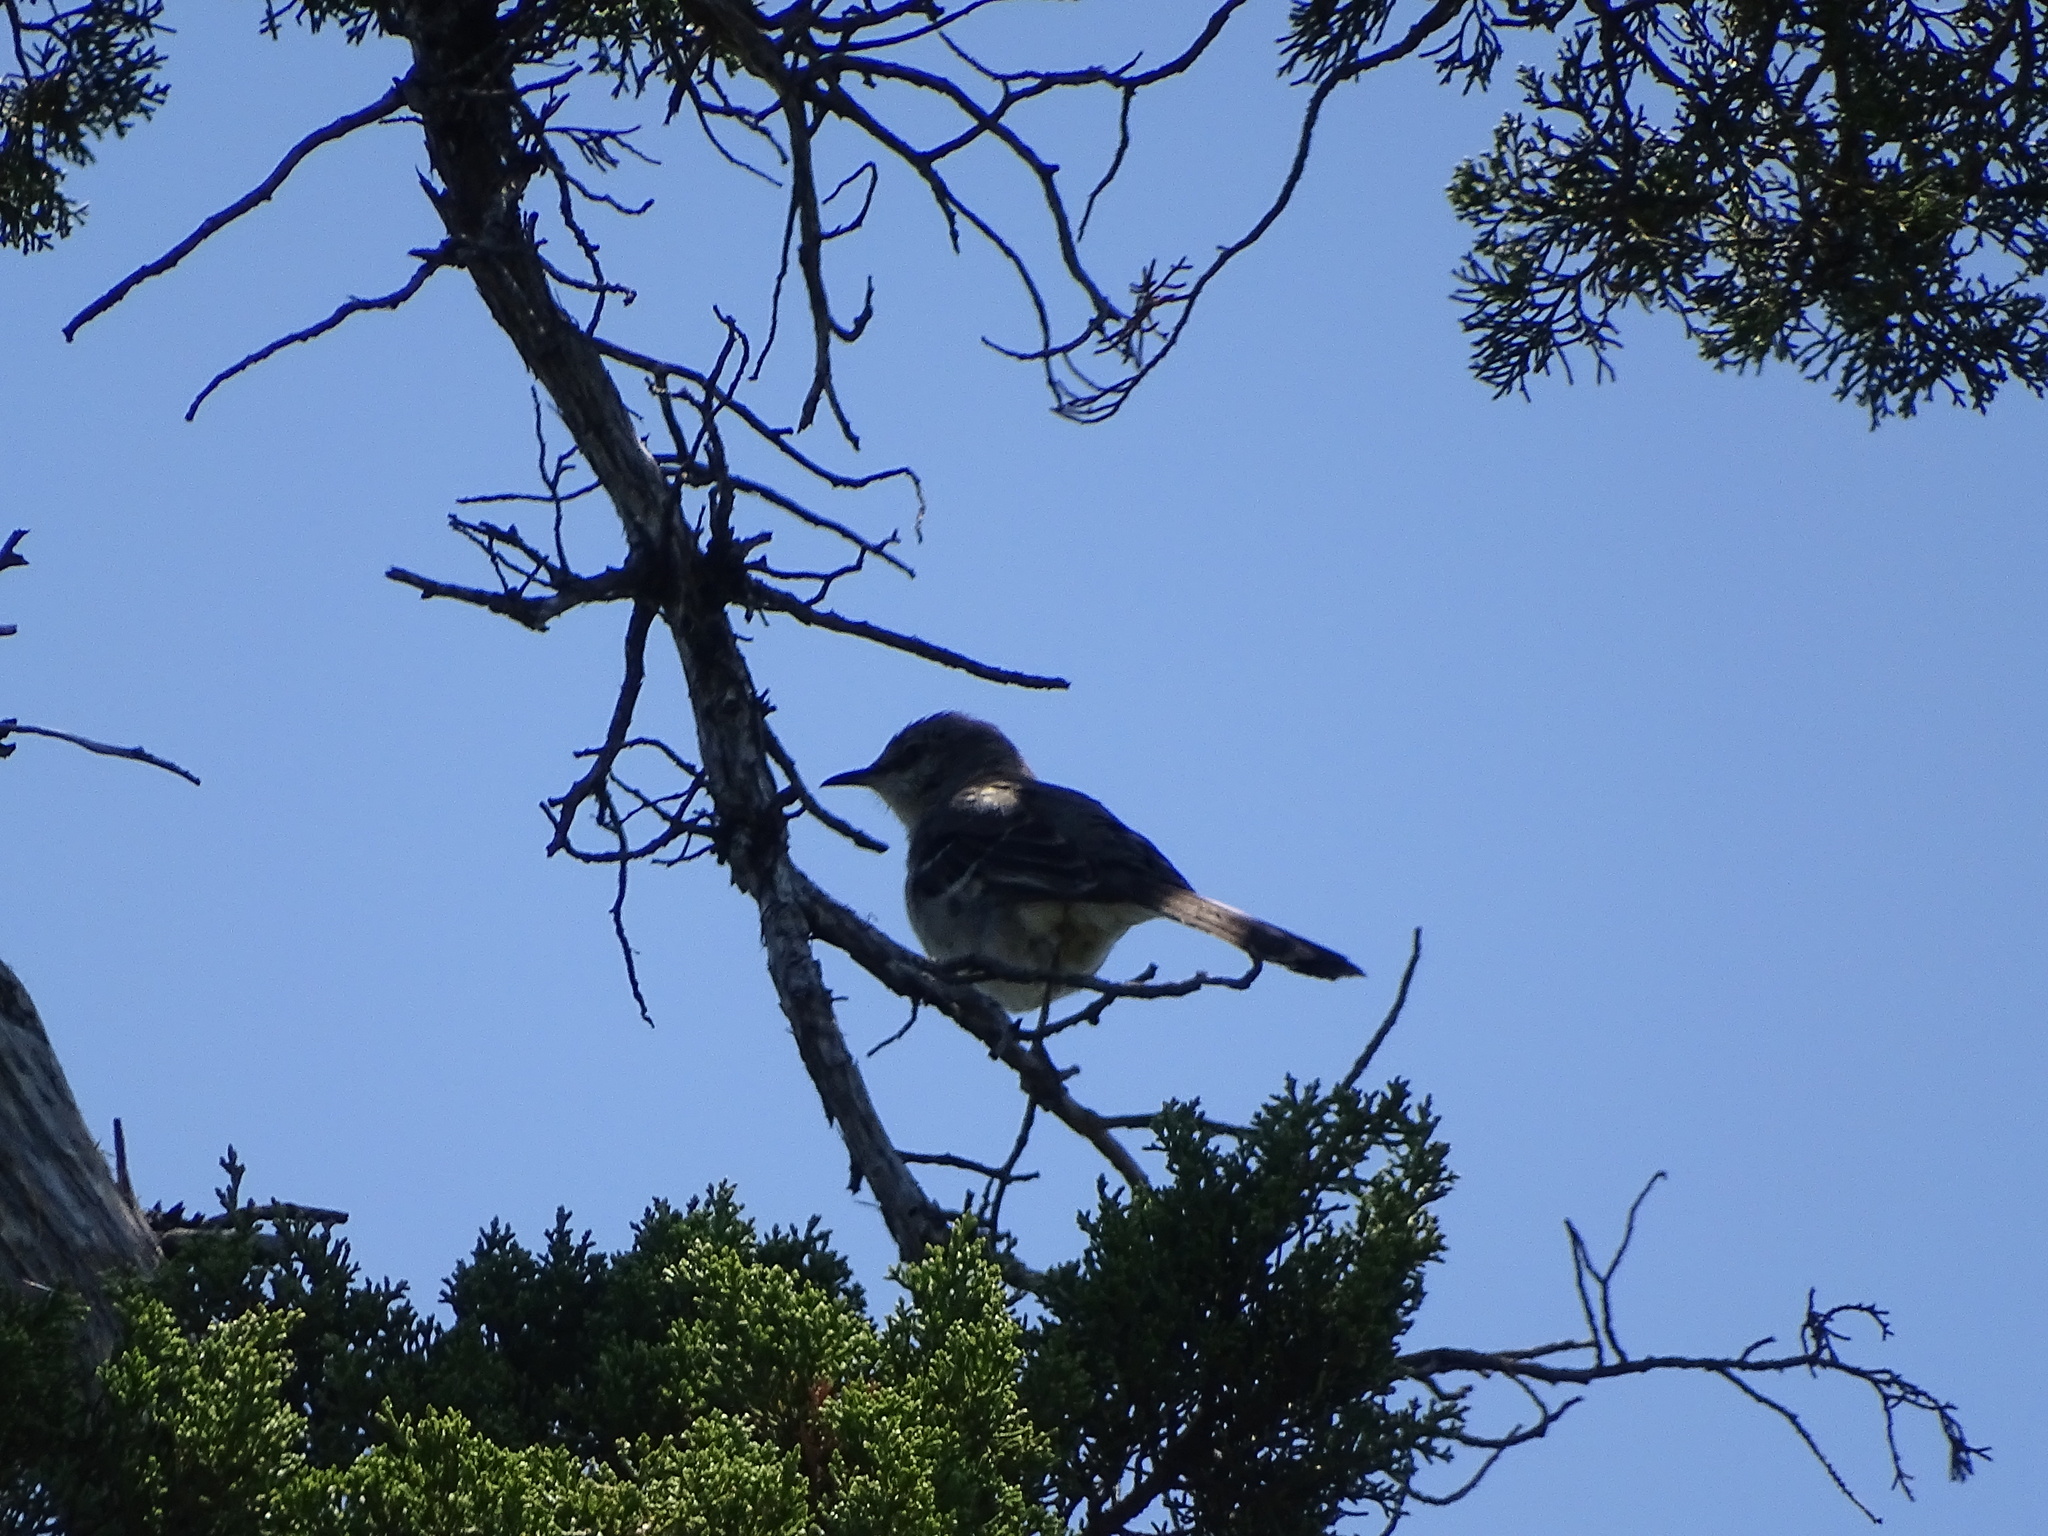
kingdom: Animalia
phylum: Chordata
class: Aves
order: Passeriformes
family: Mimidae
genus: Mimus
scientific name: Mimus polyglottos
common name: Northern mockingbird
